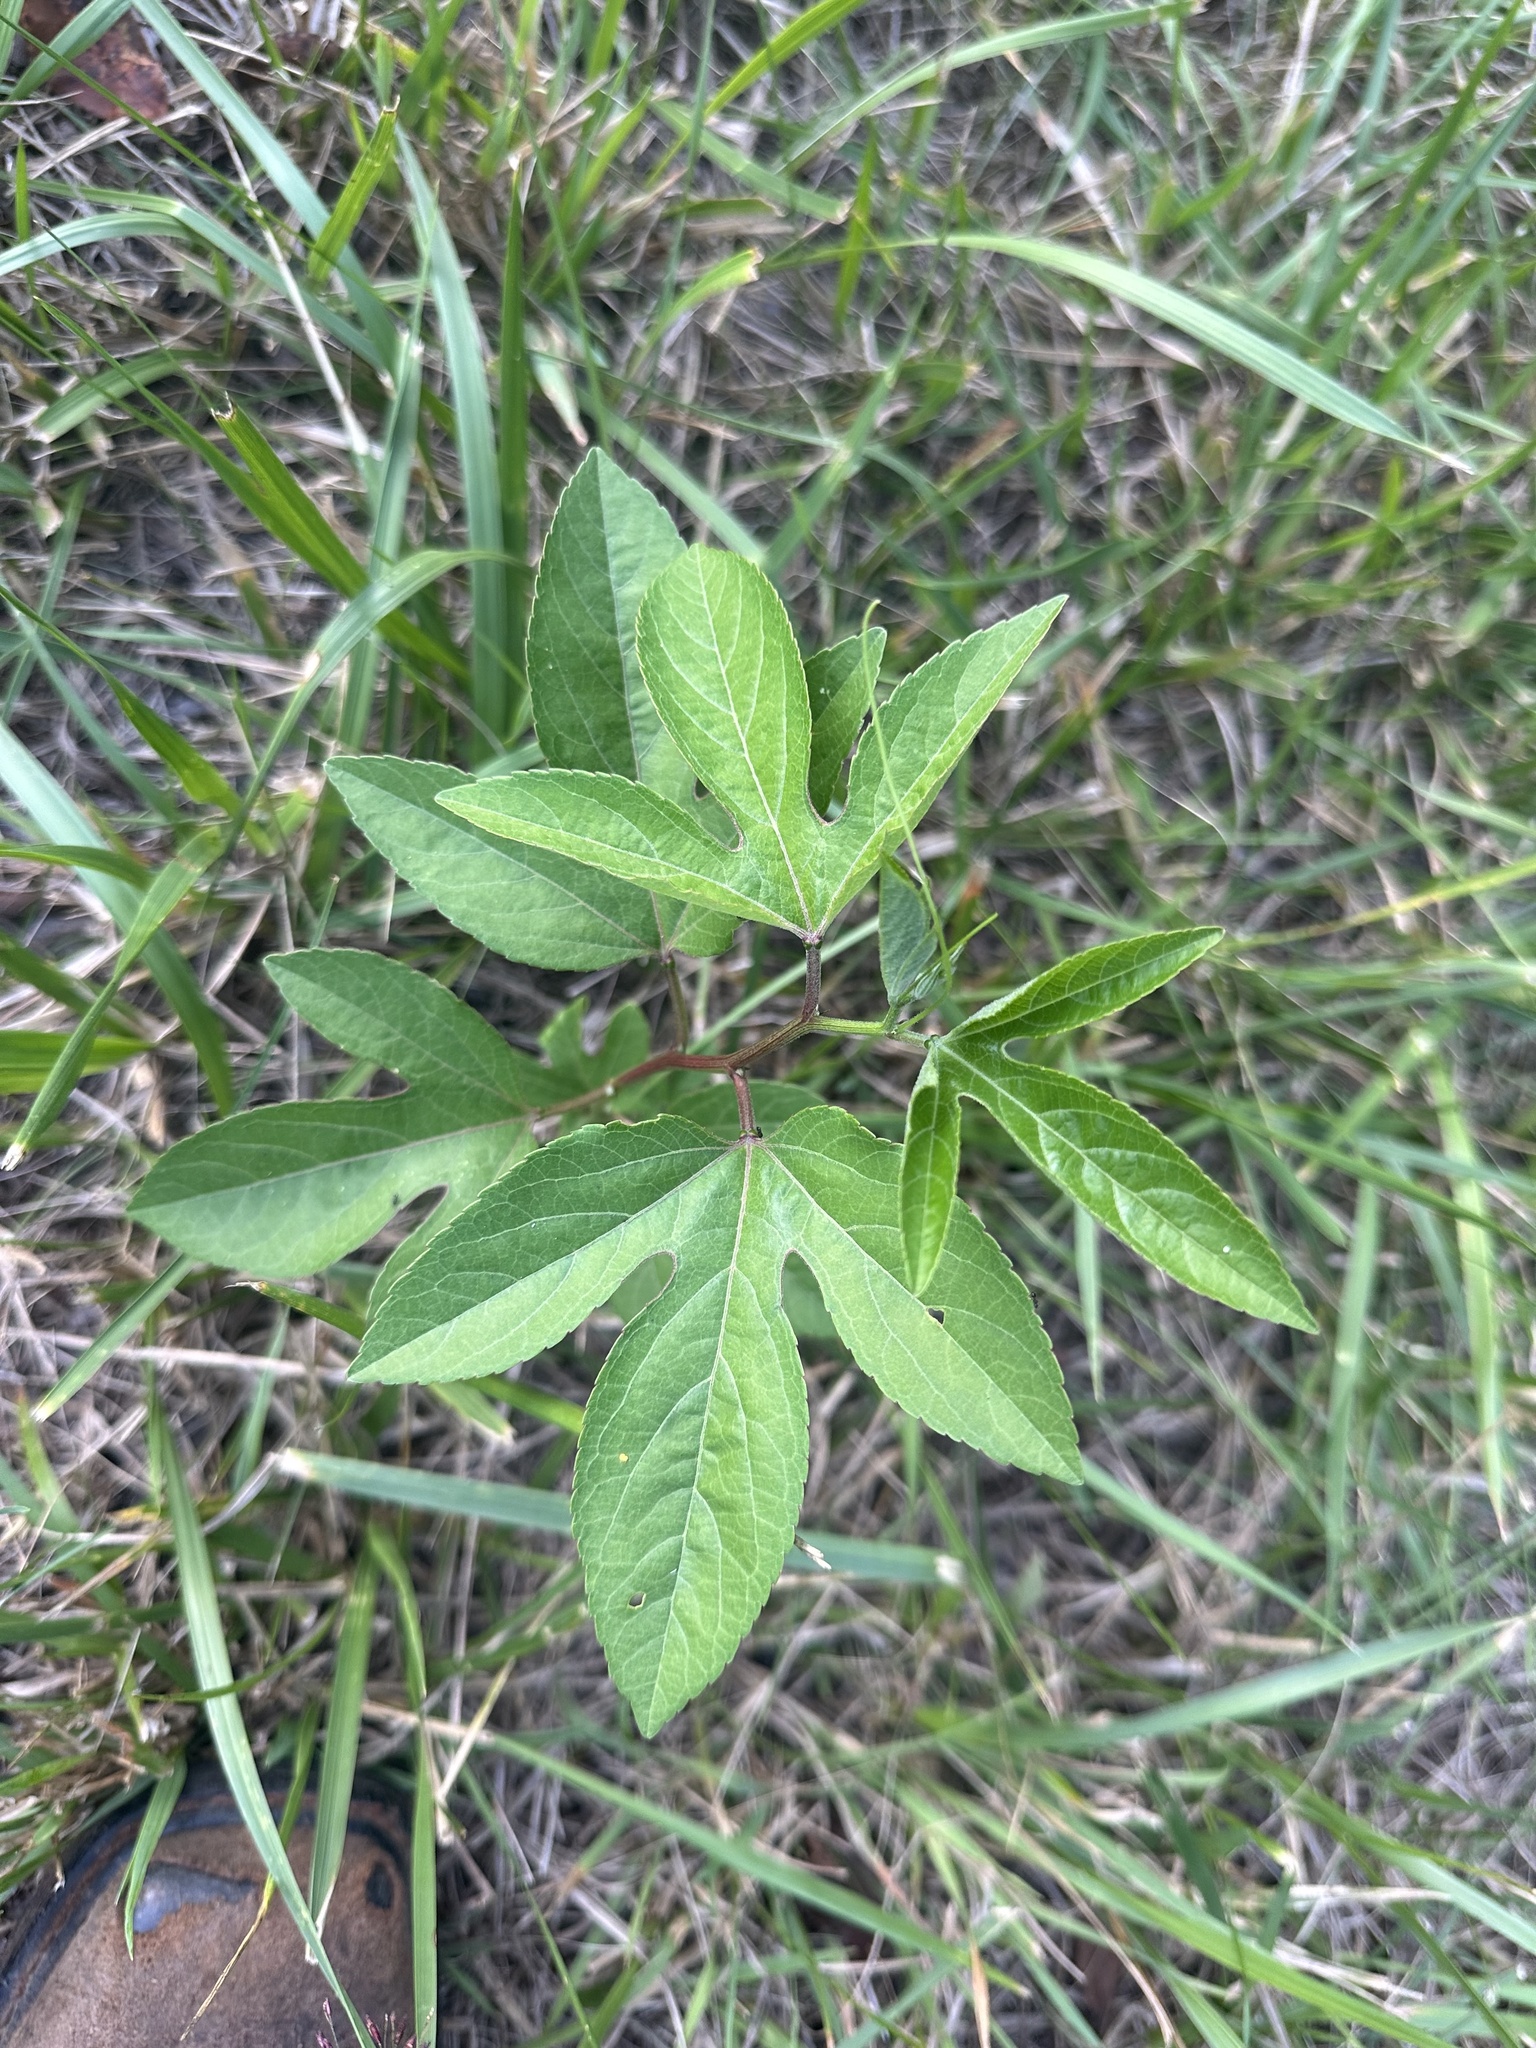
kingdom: Plantae
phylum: Tracheophyta
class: Magnoliopsida
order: Malpighiales
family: Passifloraceae
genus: Passiflora
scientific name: Passiflora incarnata
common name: Apricot-vine
